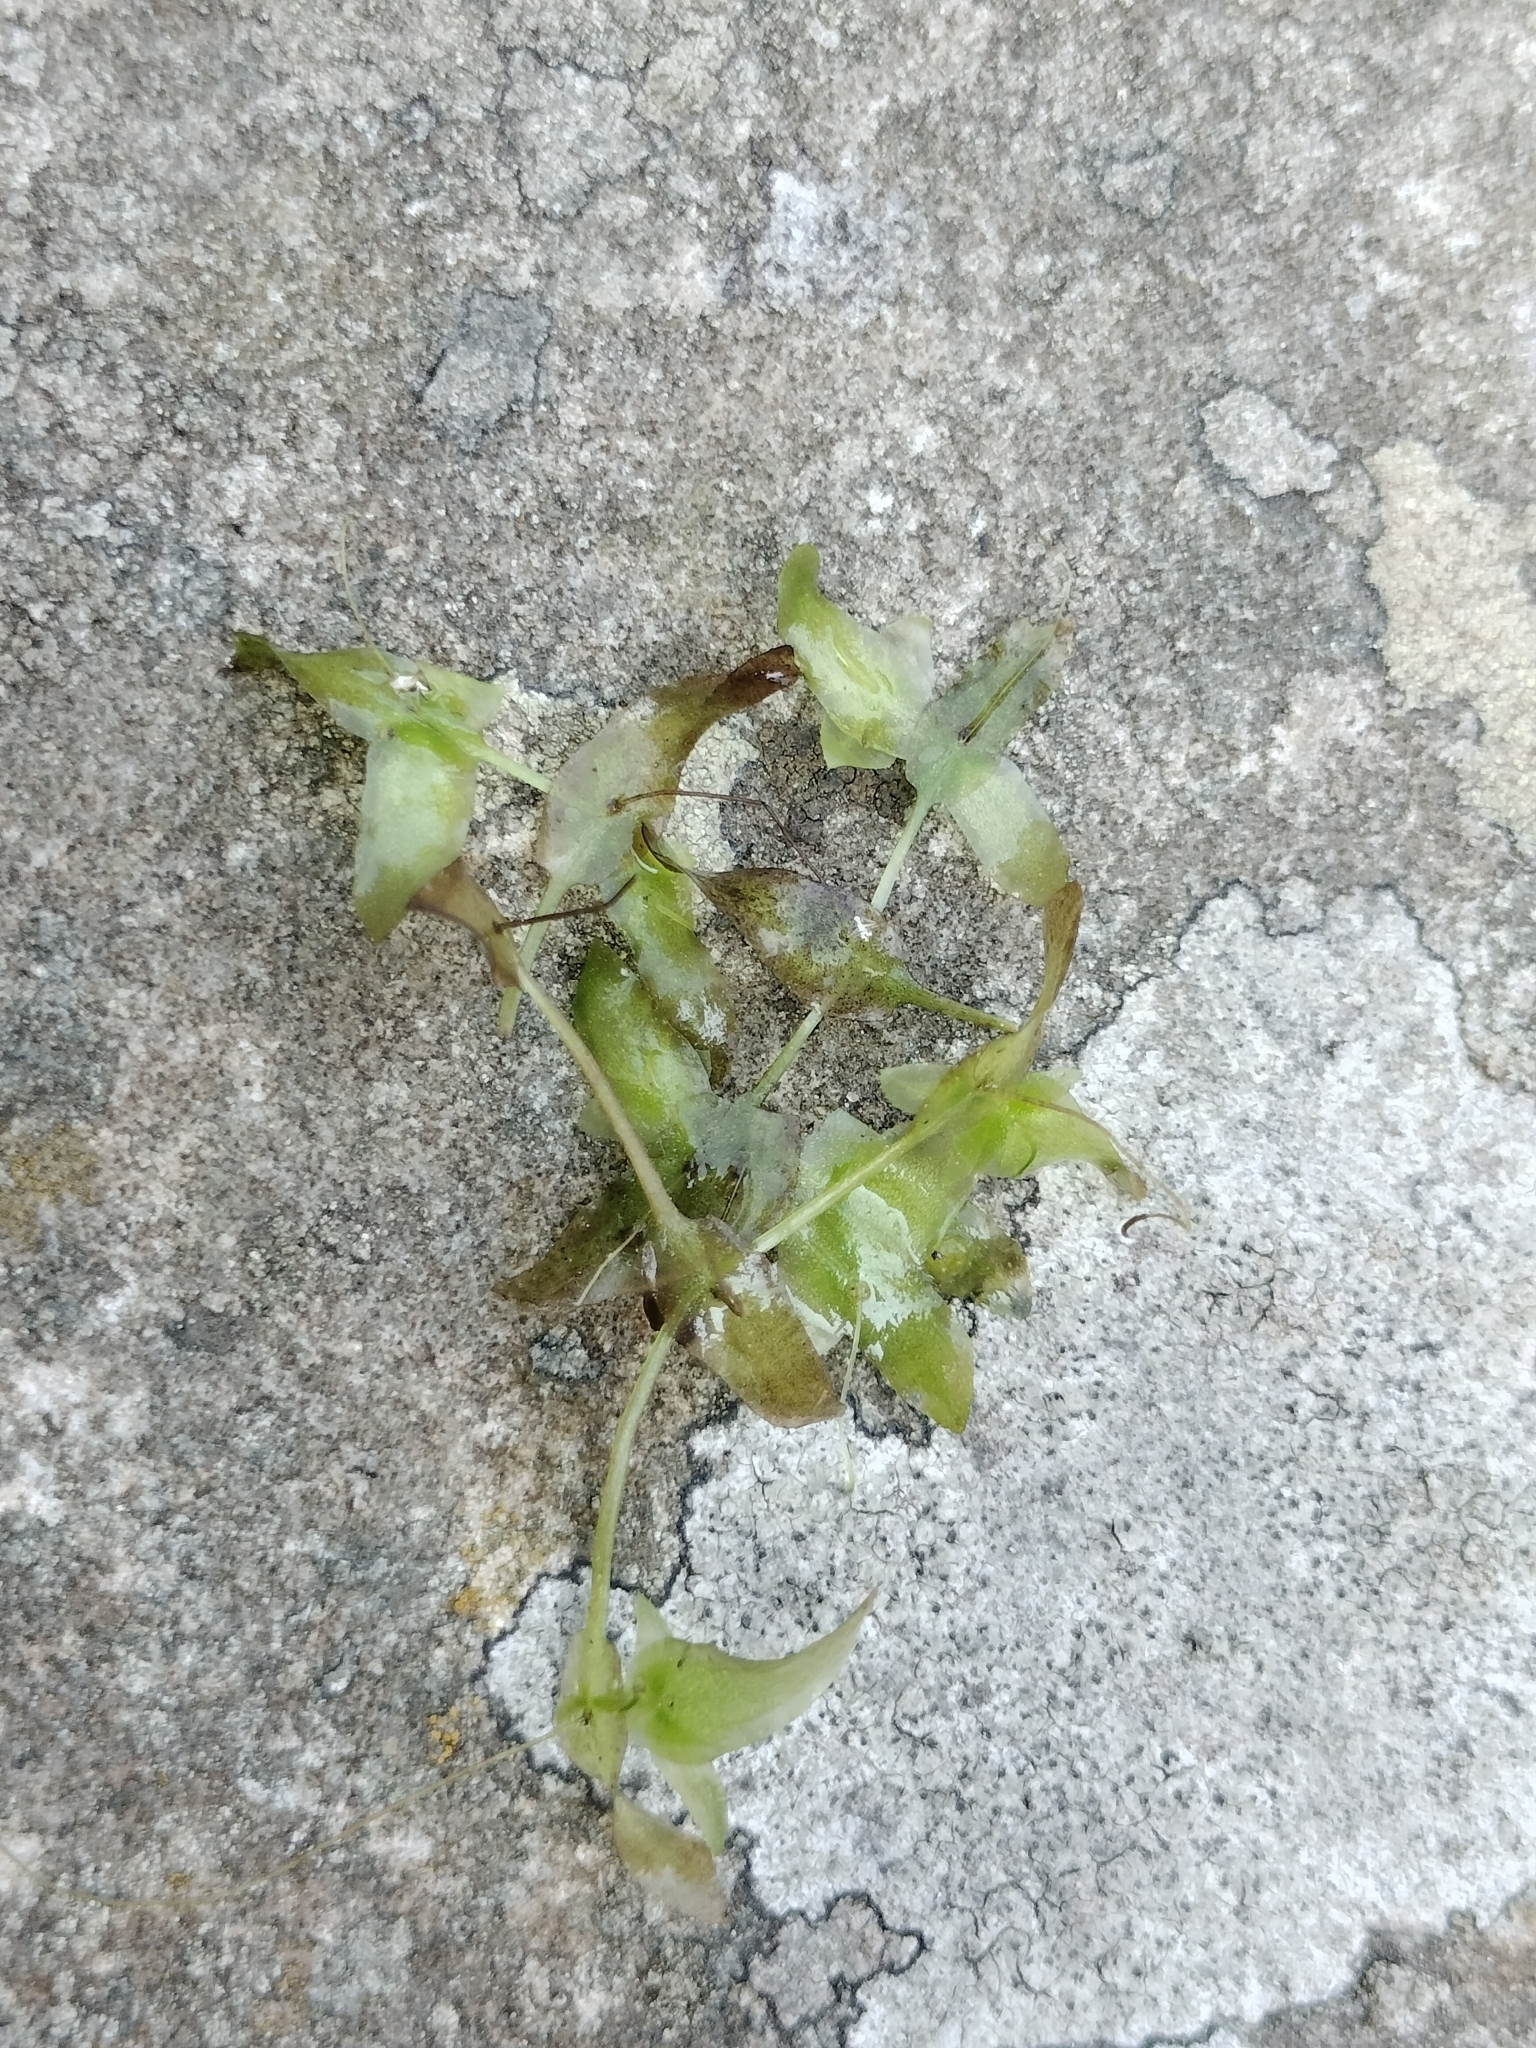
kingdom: Plantae
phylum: Tracheophyta
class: Liliopsida
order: Alismatales
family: Araceae
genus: Lemna
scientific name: Lemna trisulca
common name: Ivy-leaved duckweed
